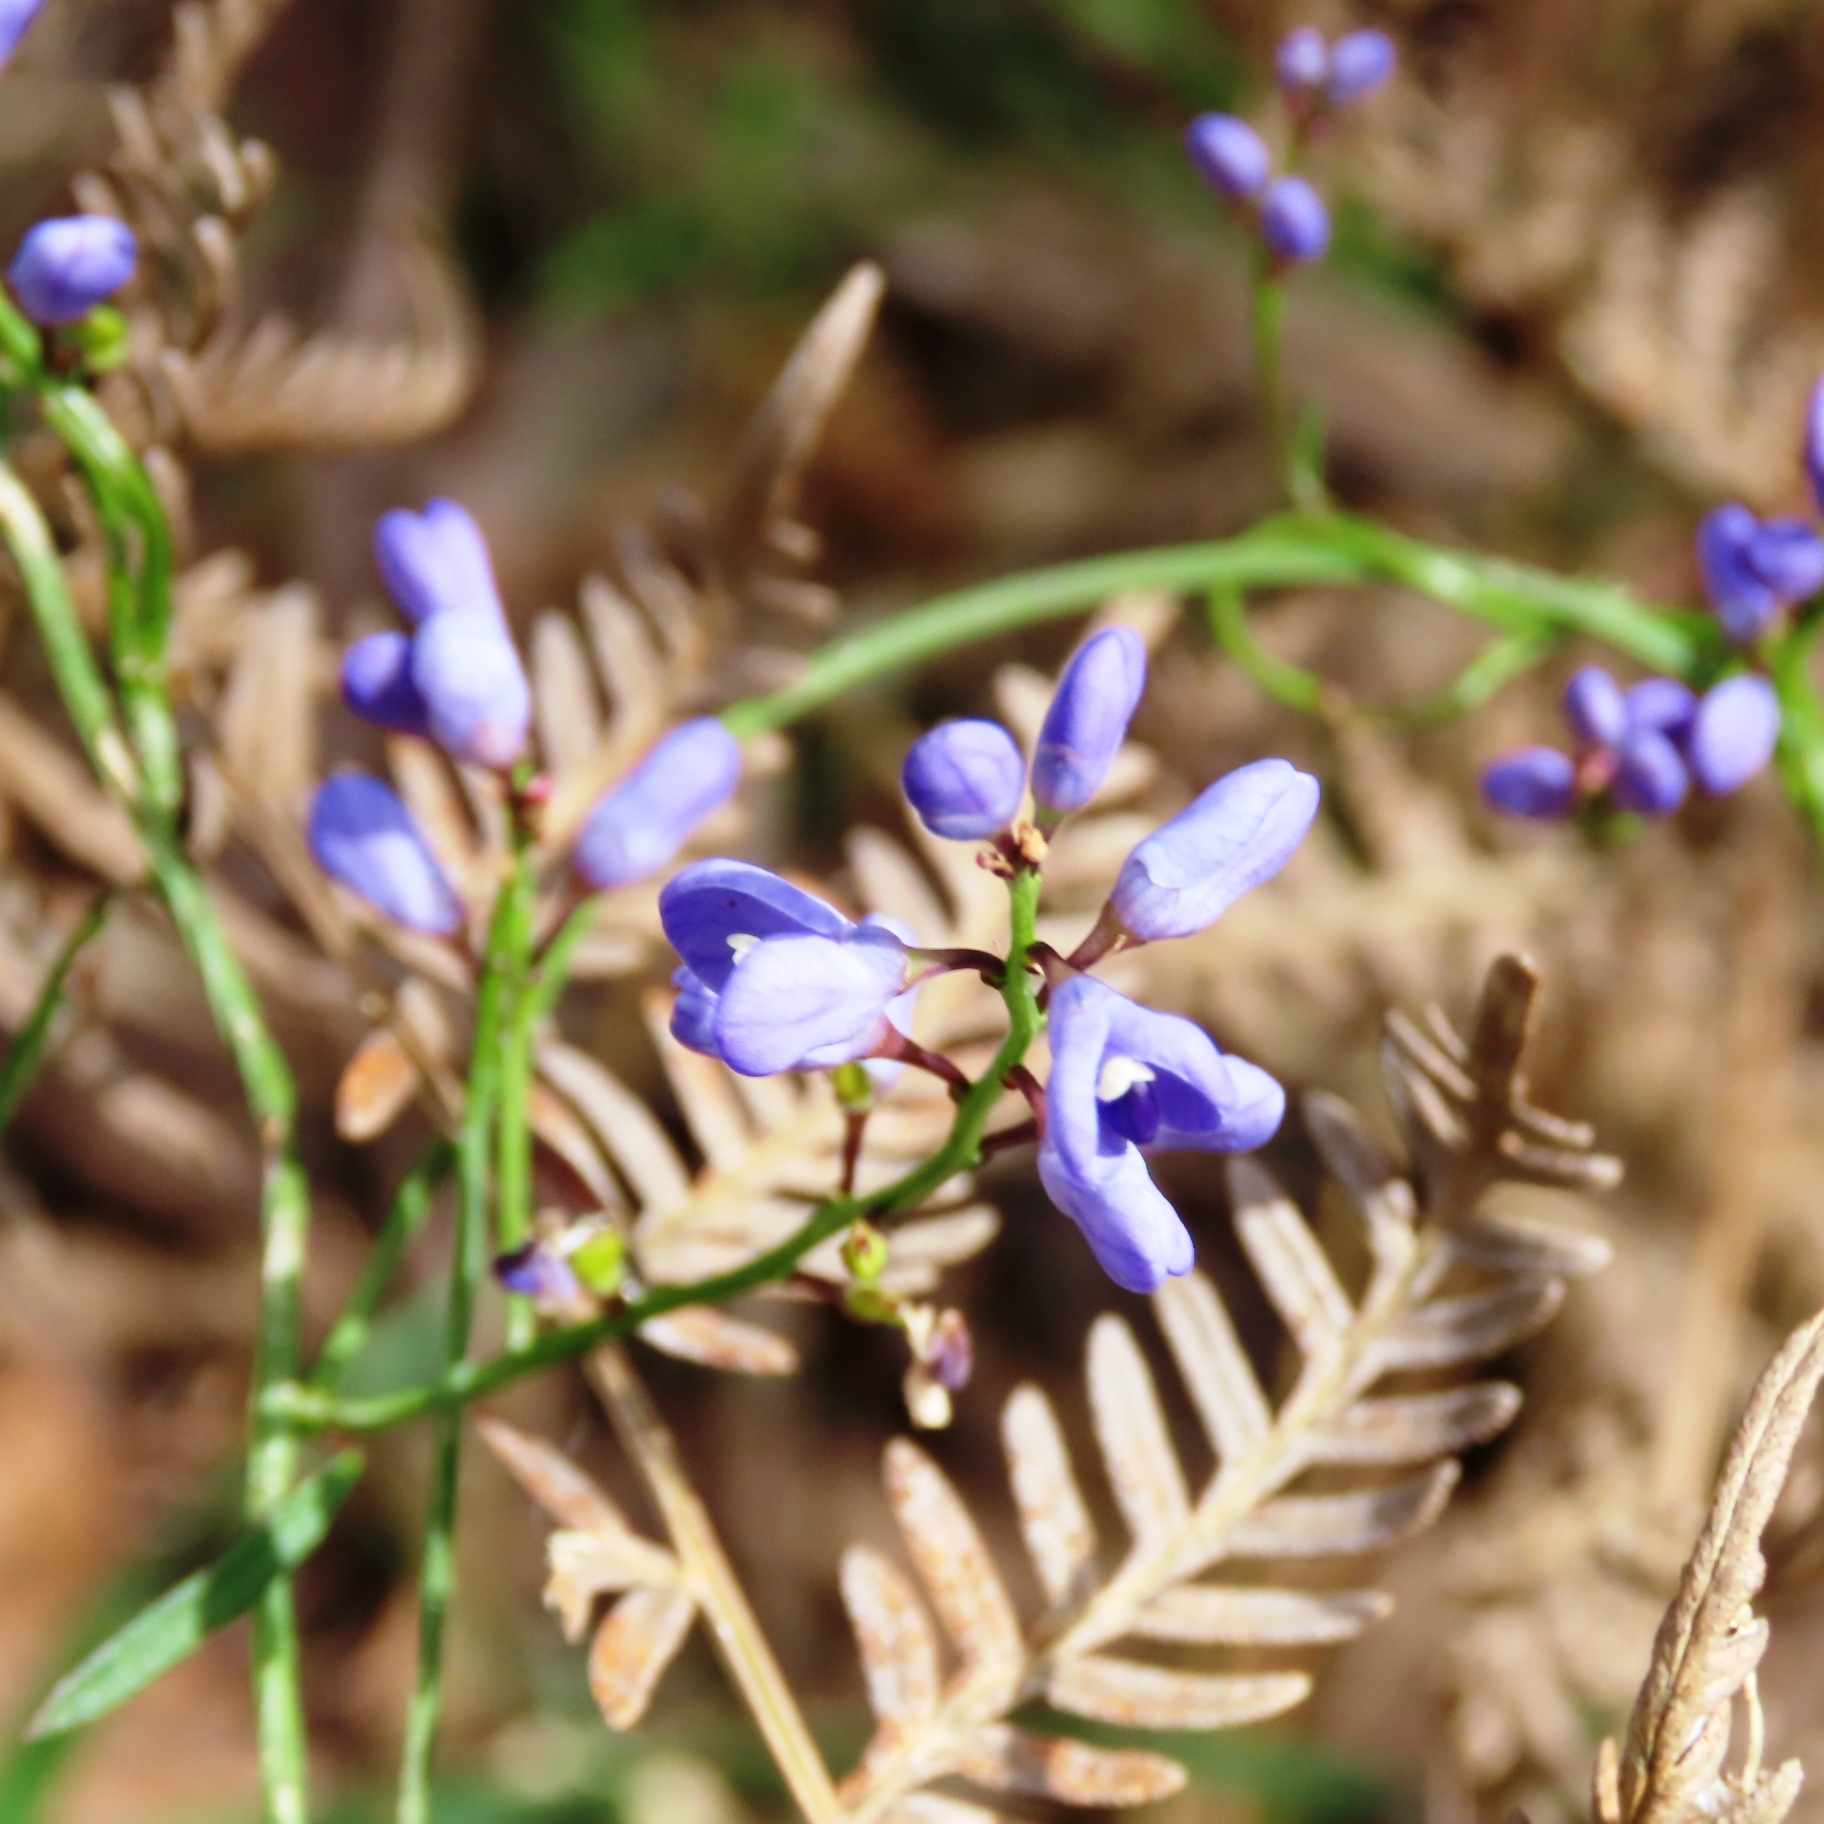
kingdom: Plantae
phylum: Tracheophyta
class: Magnoliopsida
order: Fabales
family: Polygalaceae
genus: Comesperma
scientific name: Comesperma volubile
